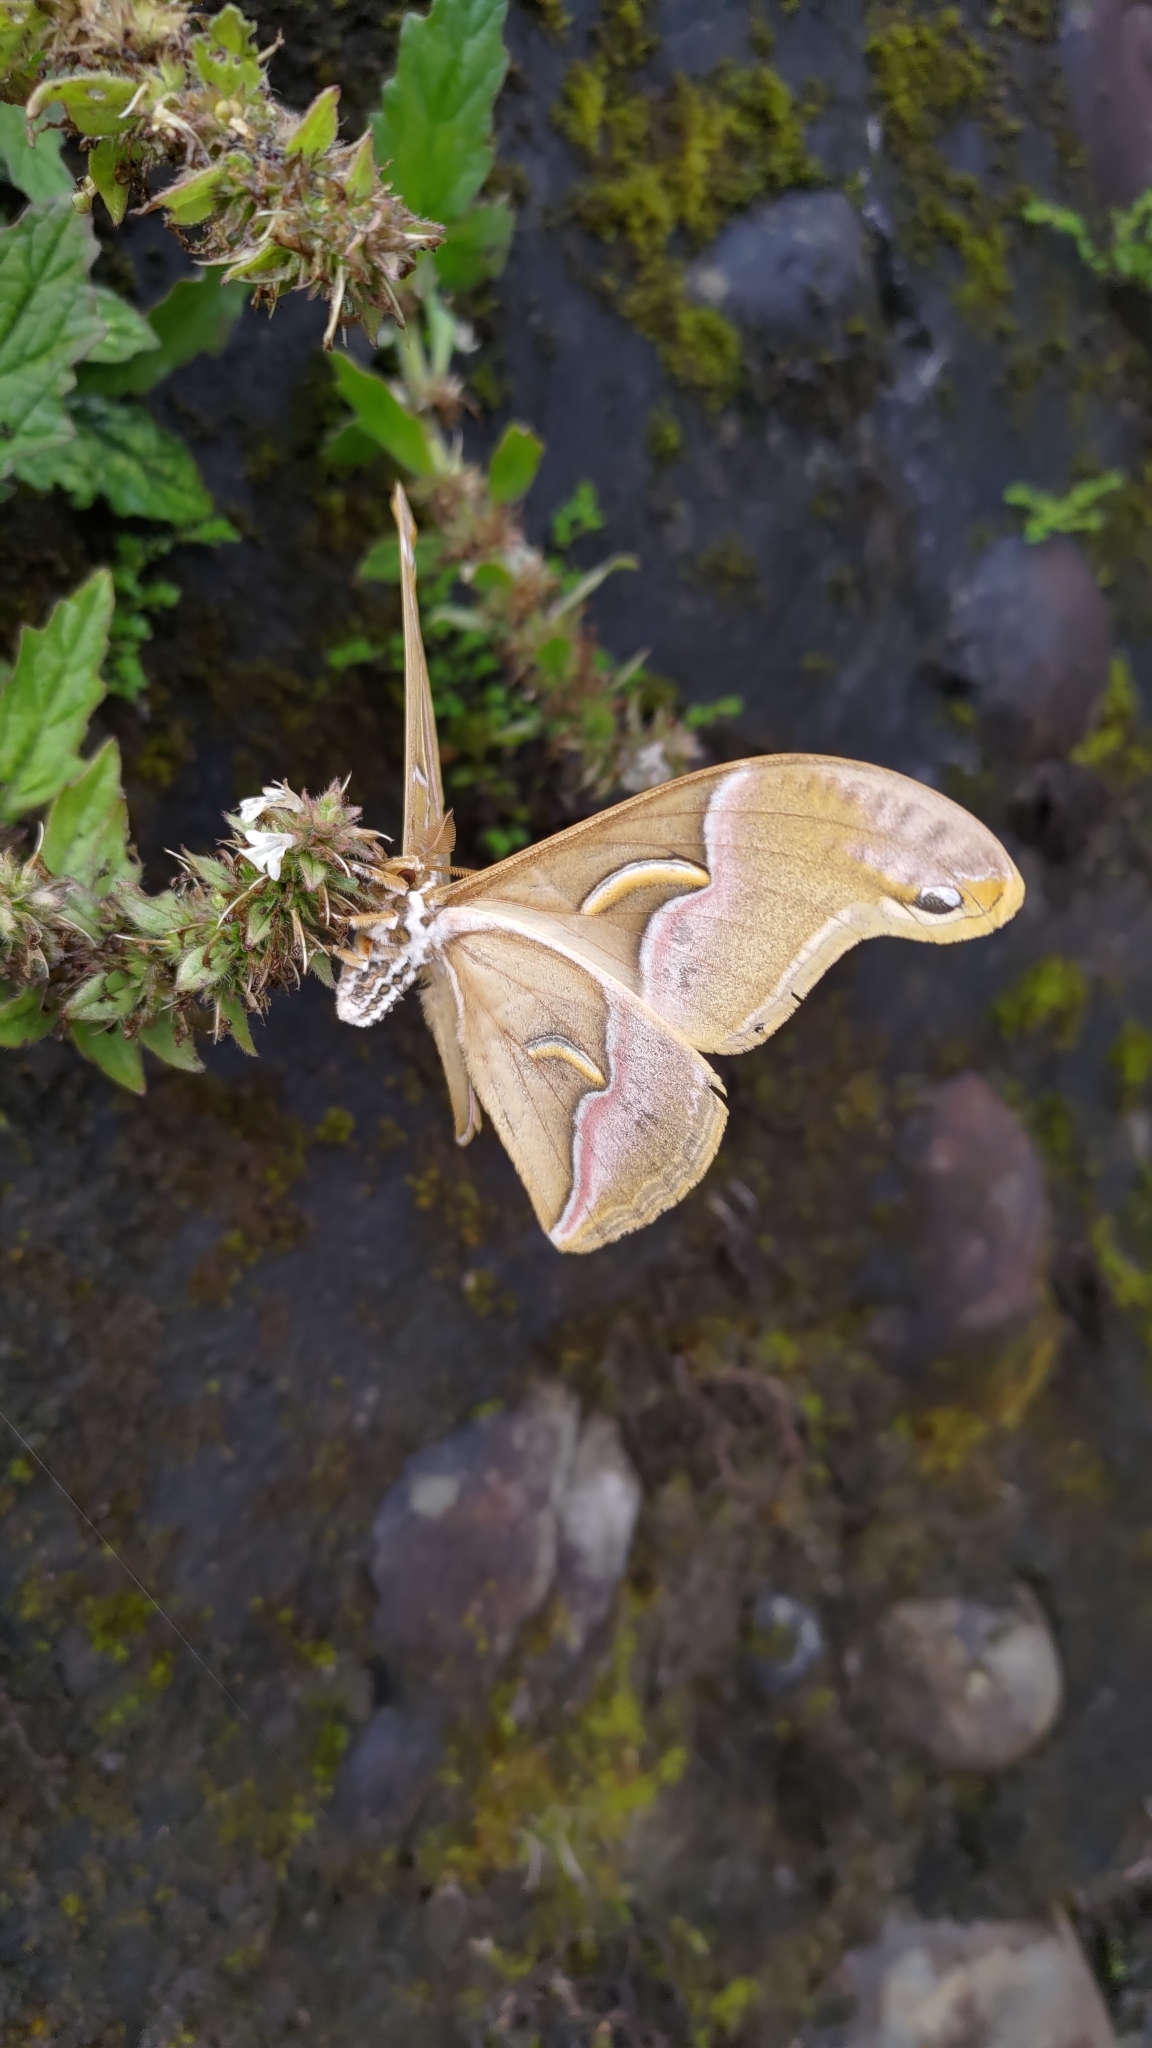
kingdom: Animalia
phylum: Arthropoda
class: Insecta
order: Lepidoptera
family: Saturniidae
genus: Samia
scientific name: Samia wangi
